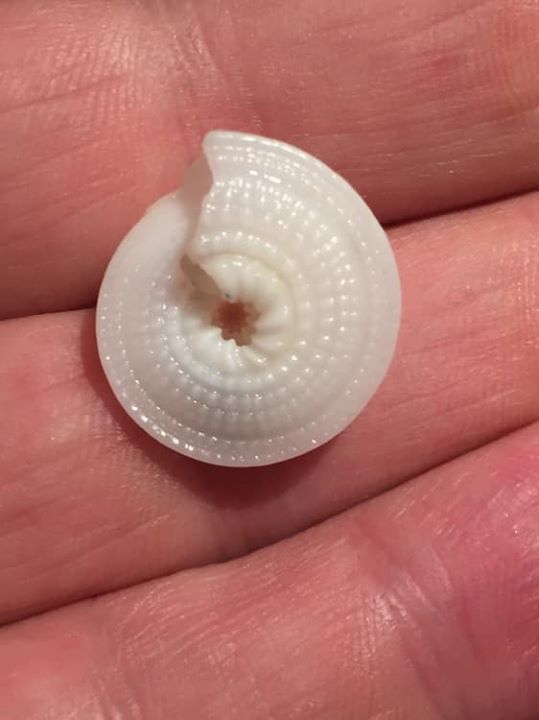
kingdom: Animalia
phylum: Mollusca
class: Gastropoda
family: Architectonicidae
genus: Architectonica
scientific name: Architectonica nobilis
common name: Common sundial
